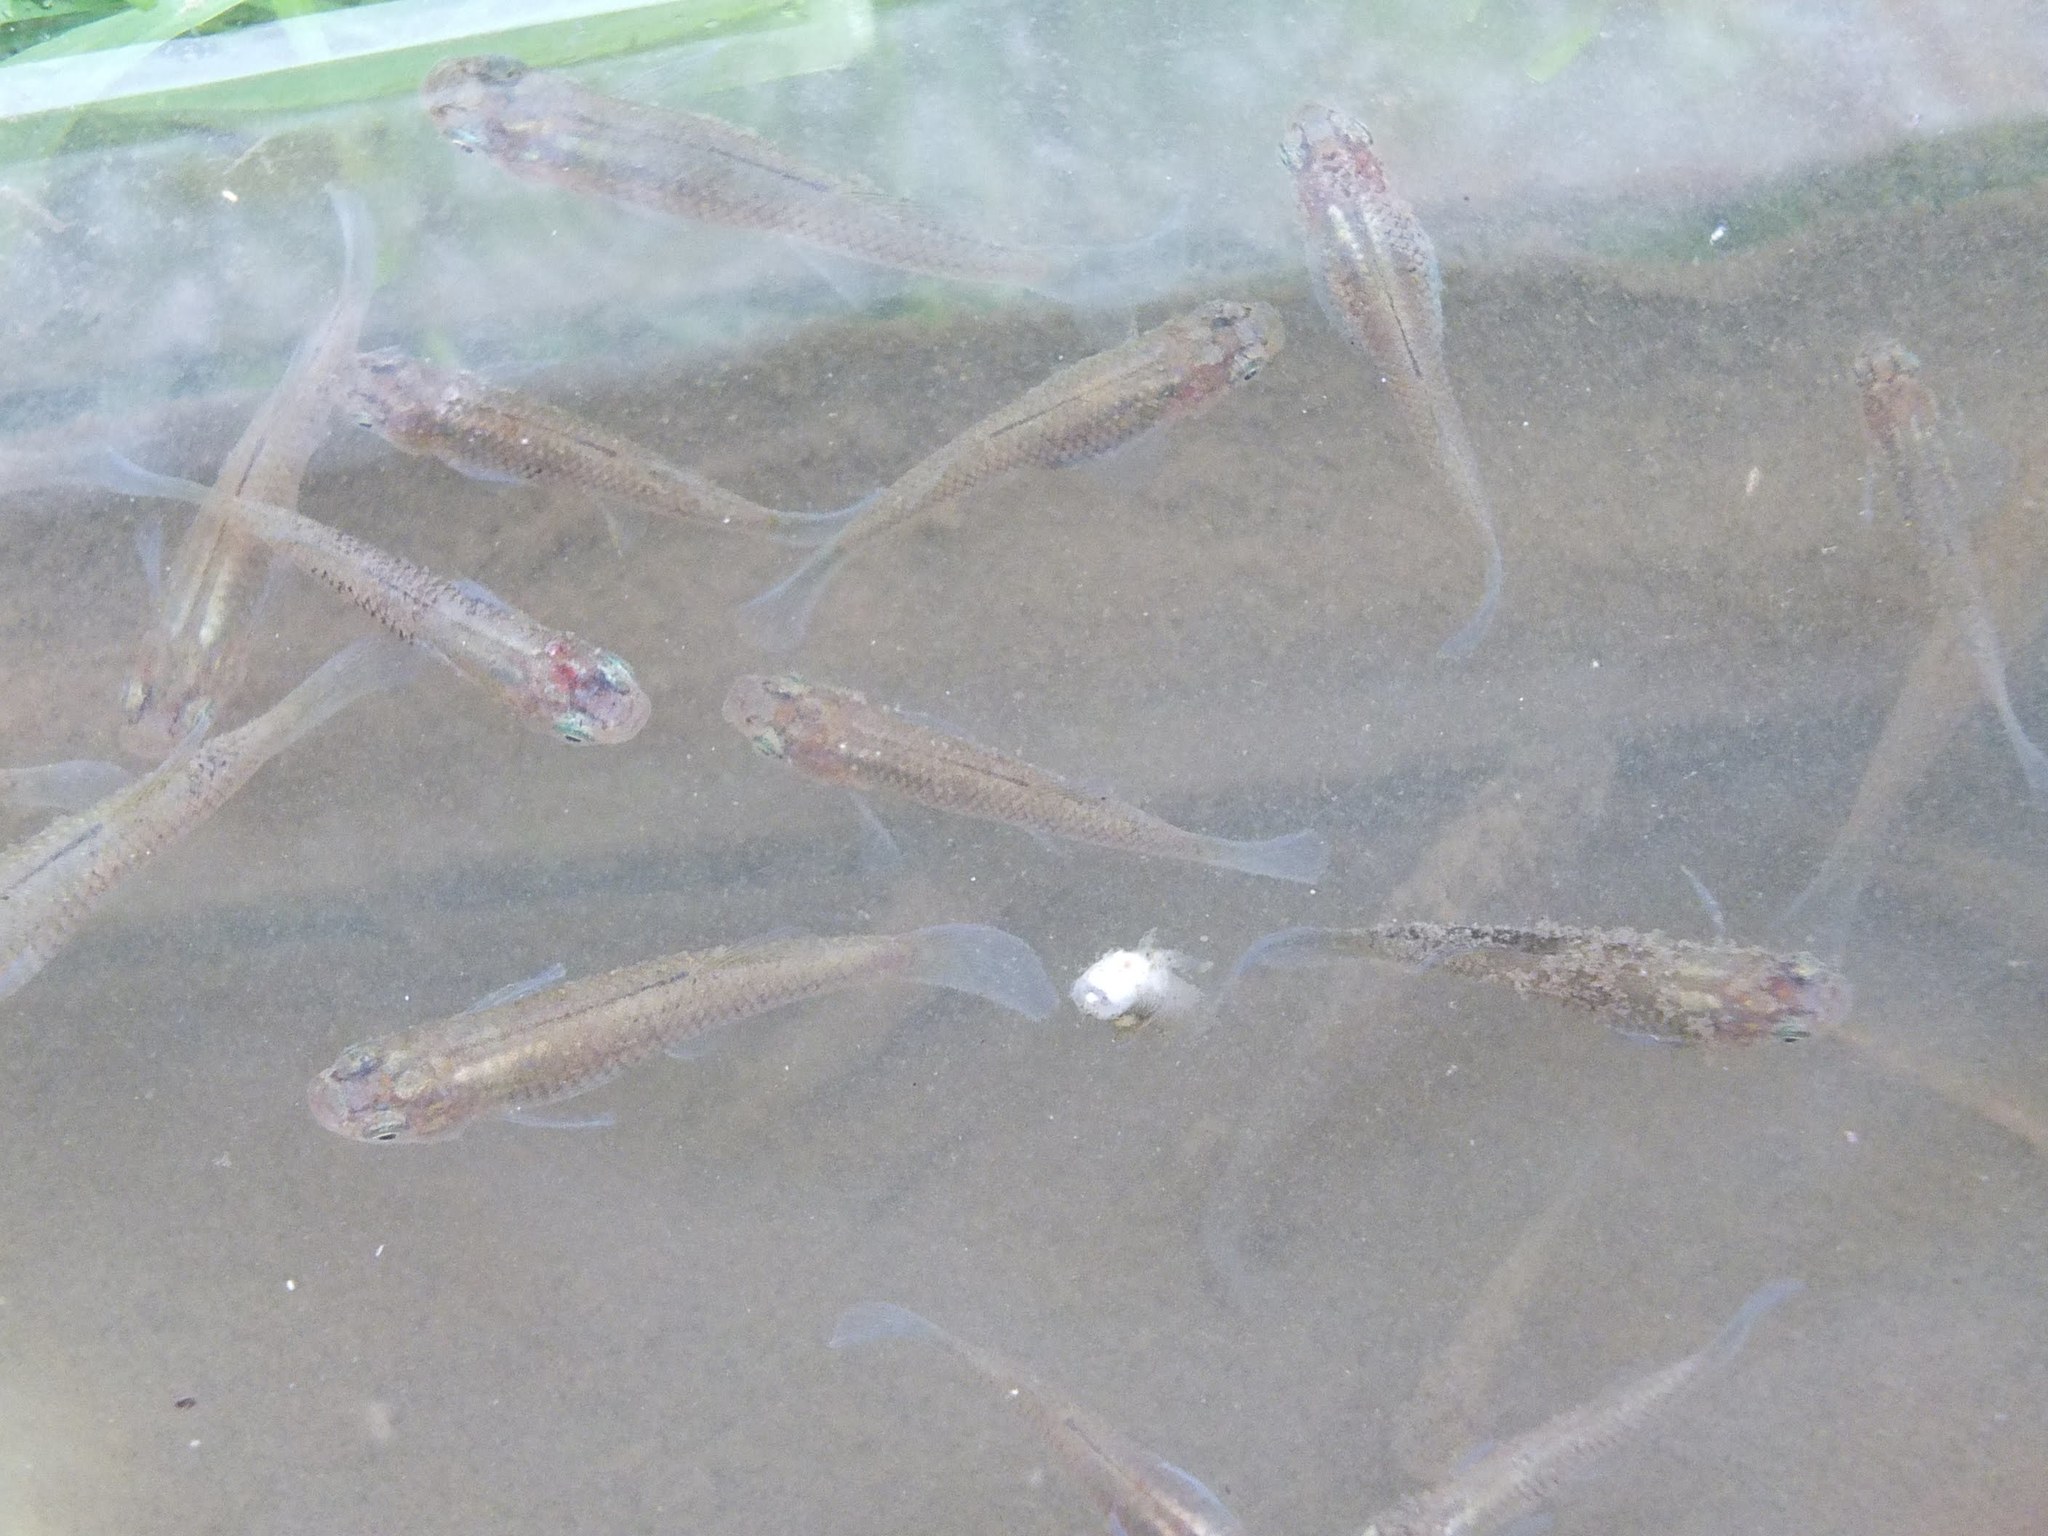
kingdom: Animalia
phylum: Chordata
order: Cyprinodontiformes
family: Poeciliidae
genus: Gambusia
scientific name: Gambusia affinis
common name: Mosquitofish
